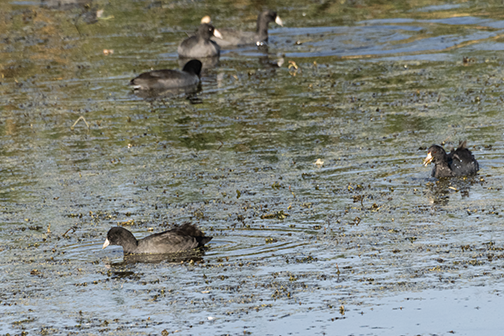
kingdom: Animalia
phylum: Chordata
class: Aves
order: Gruiformes
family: Rallidae
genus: Fulica
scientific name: Fulica americana
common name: American coot
